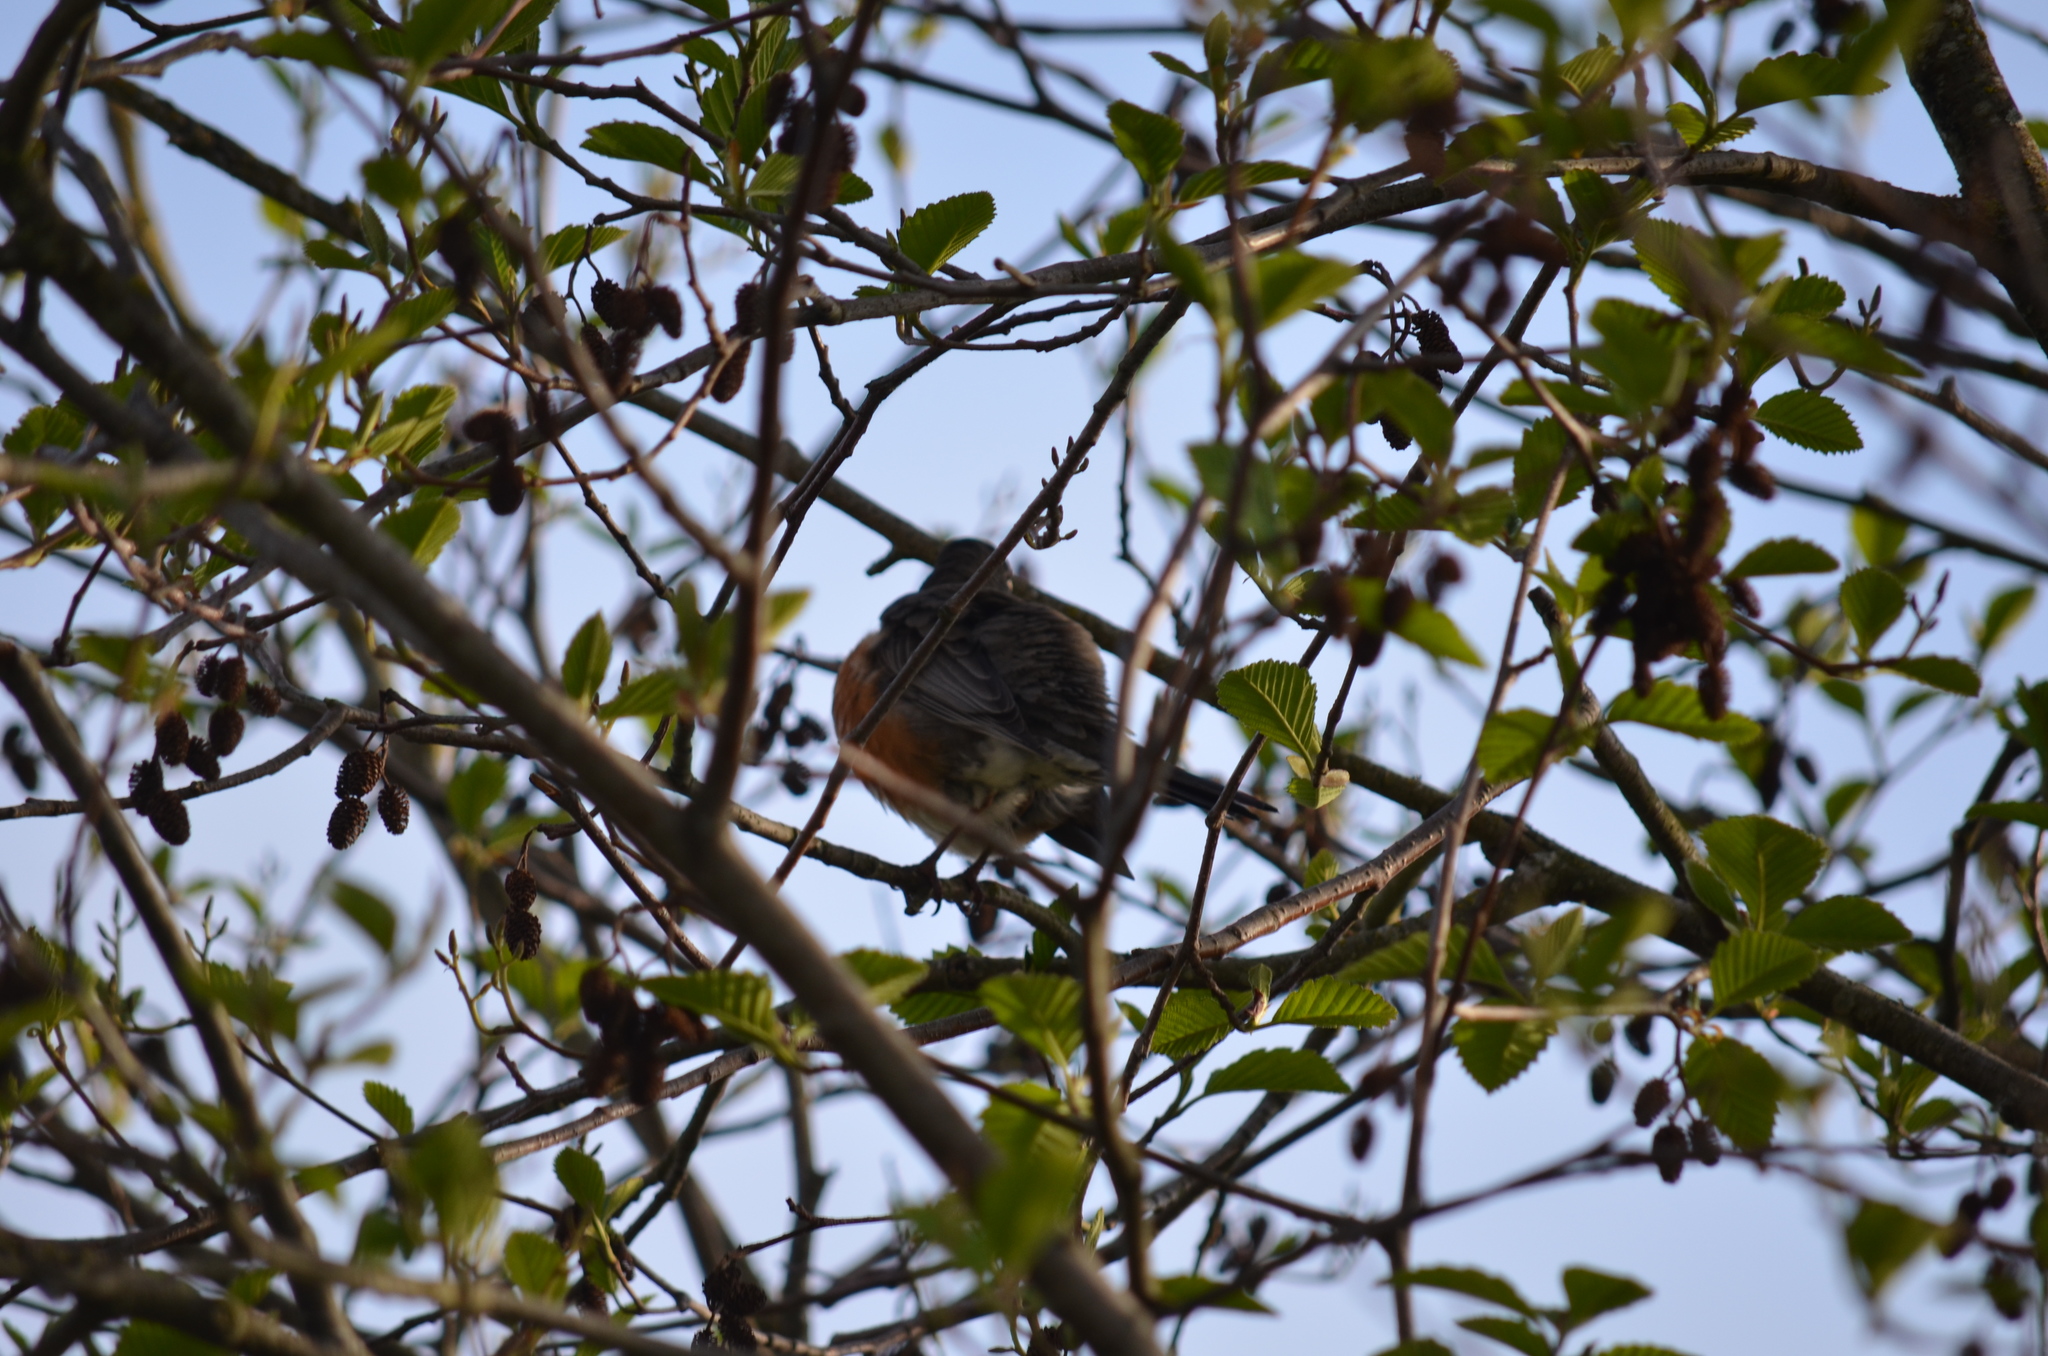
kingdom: Animalia
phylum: Chordata
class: Aves
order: Passeriformes
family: Turdidae
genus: Turdus
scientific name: Turdus migratorius
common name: American robin
